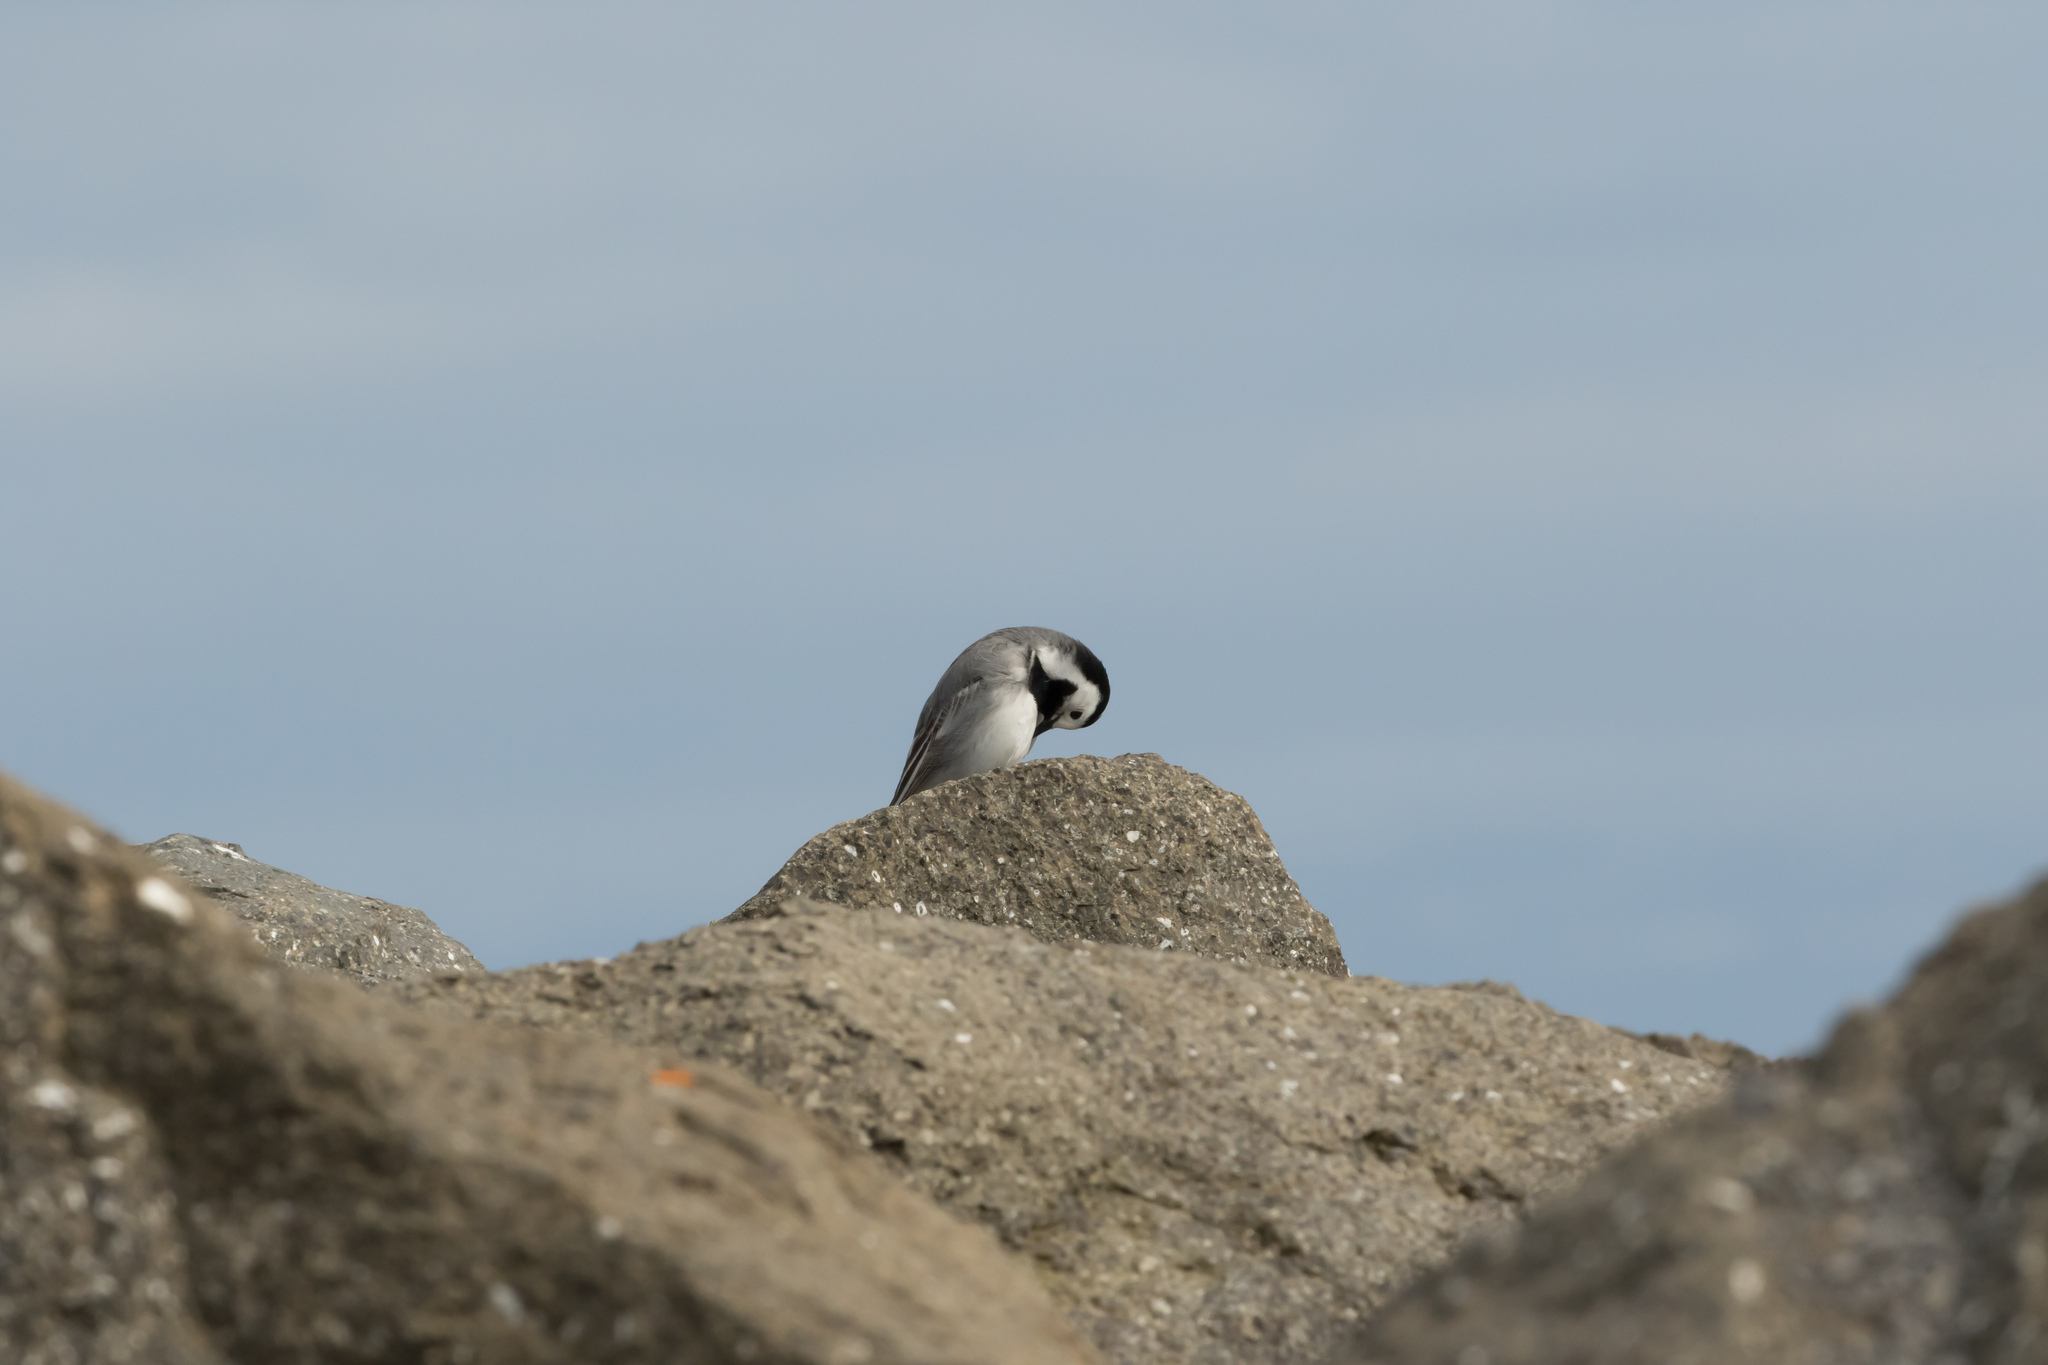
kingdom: Animalia
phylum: Chordata
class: Aves
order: Passeriformes
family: Motacillidae
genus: Motacilla
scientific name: Motacilla alba
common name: White wagtail
